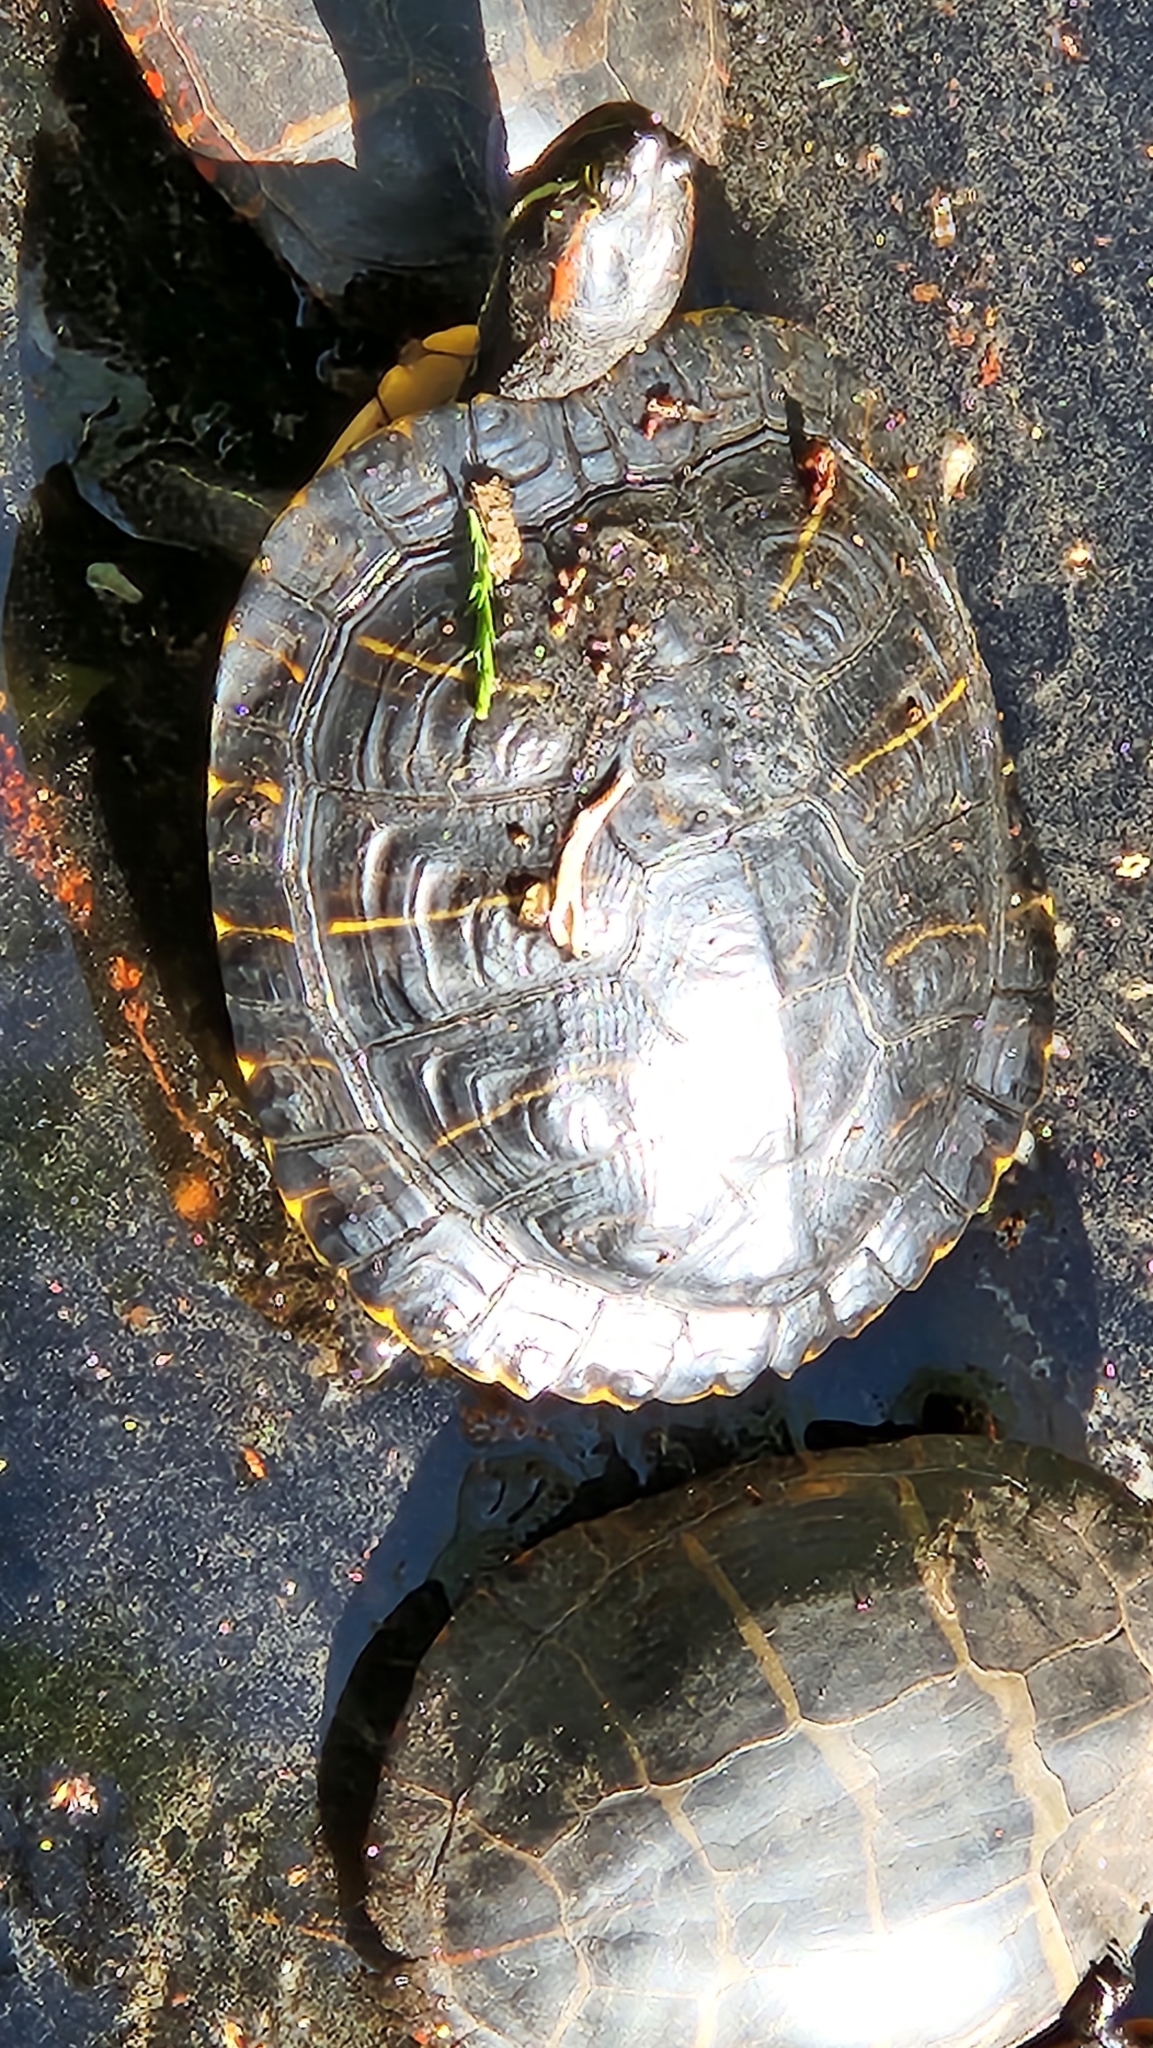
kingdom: Animalia
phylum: Chordata
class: Testudines
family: Emydidae
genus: Trachemys
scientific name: Trachemys scripta
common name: Slider
